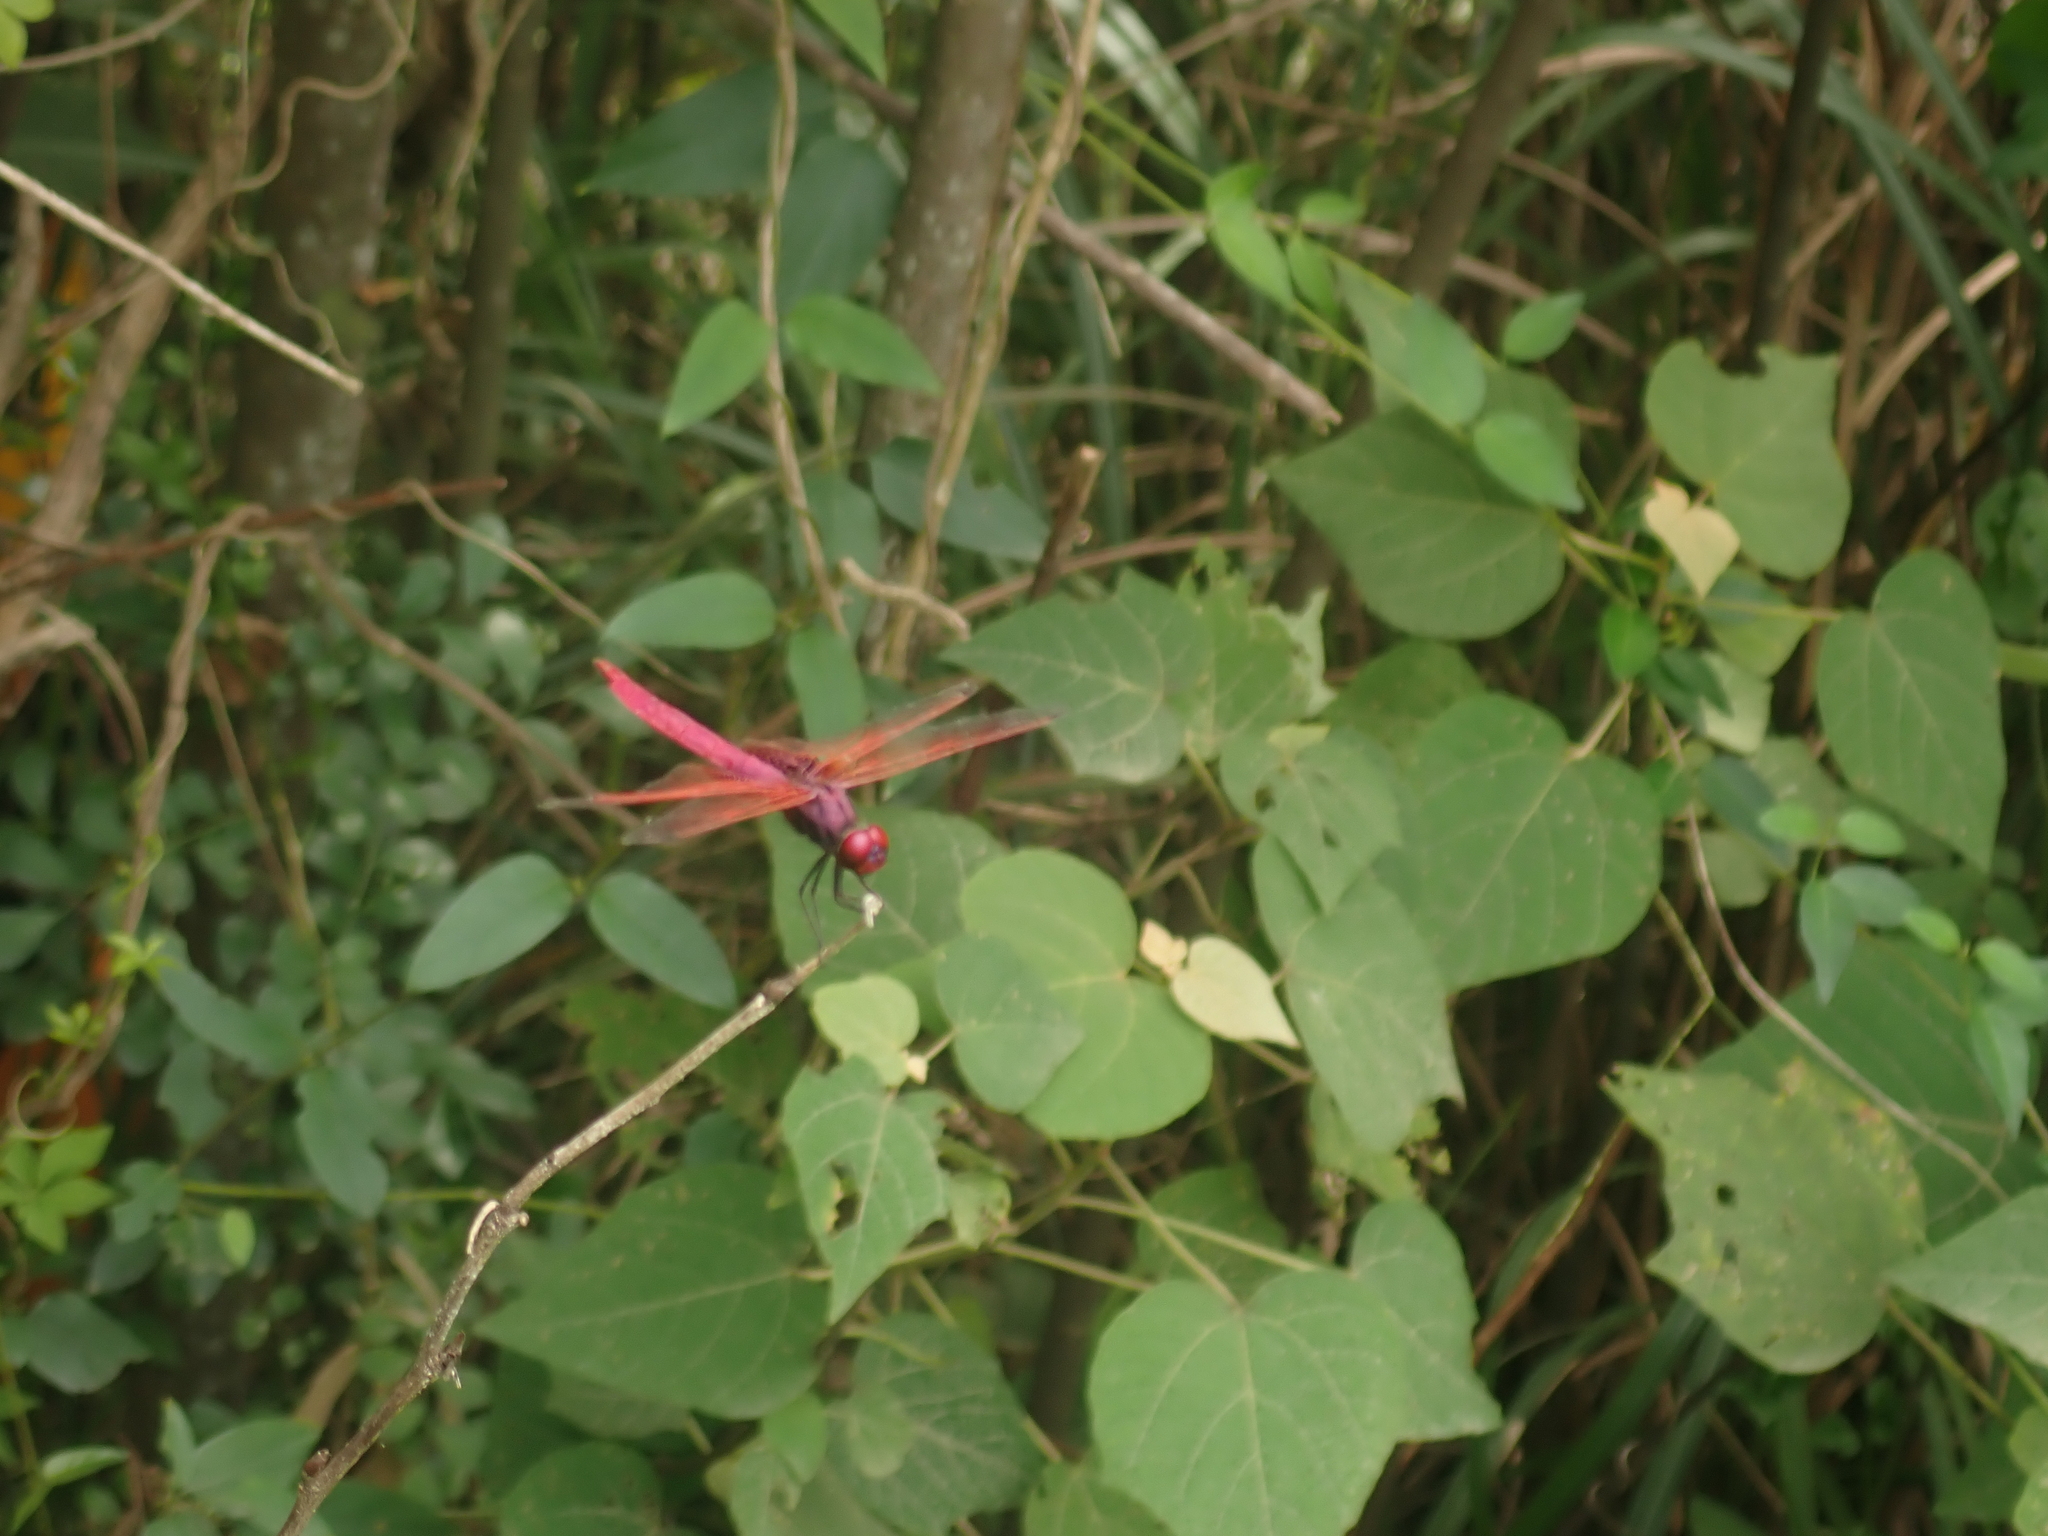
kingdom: Animalia
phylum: Arthropoda
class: Insecta
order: Odonata
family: Libellulidae
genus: Trithemis
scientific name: Trithemis aurora
